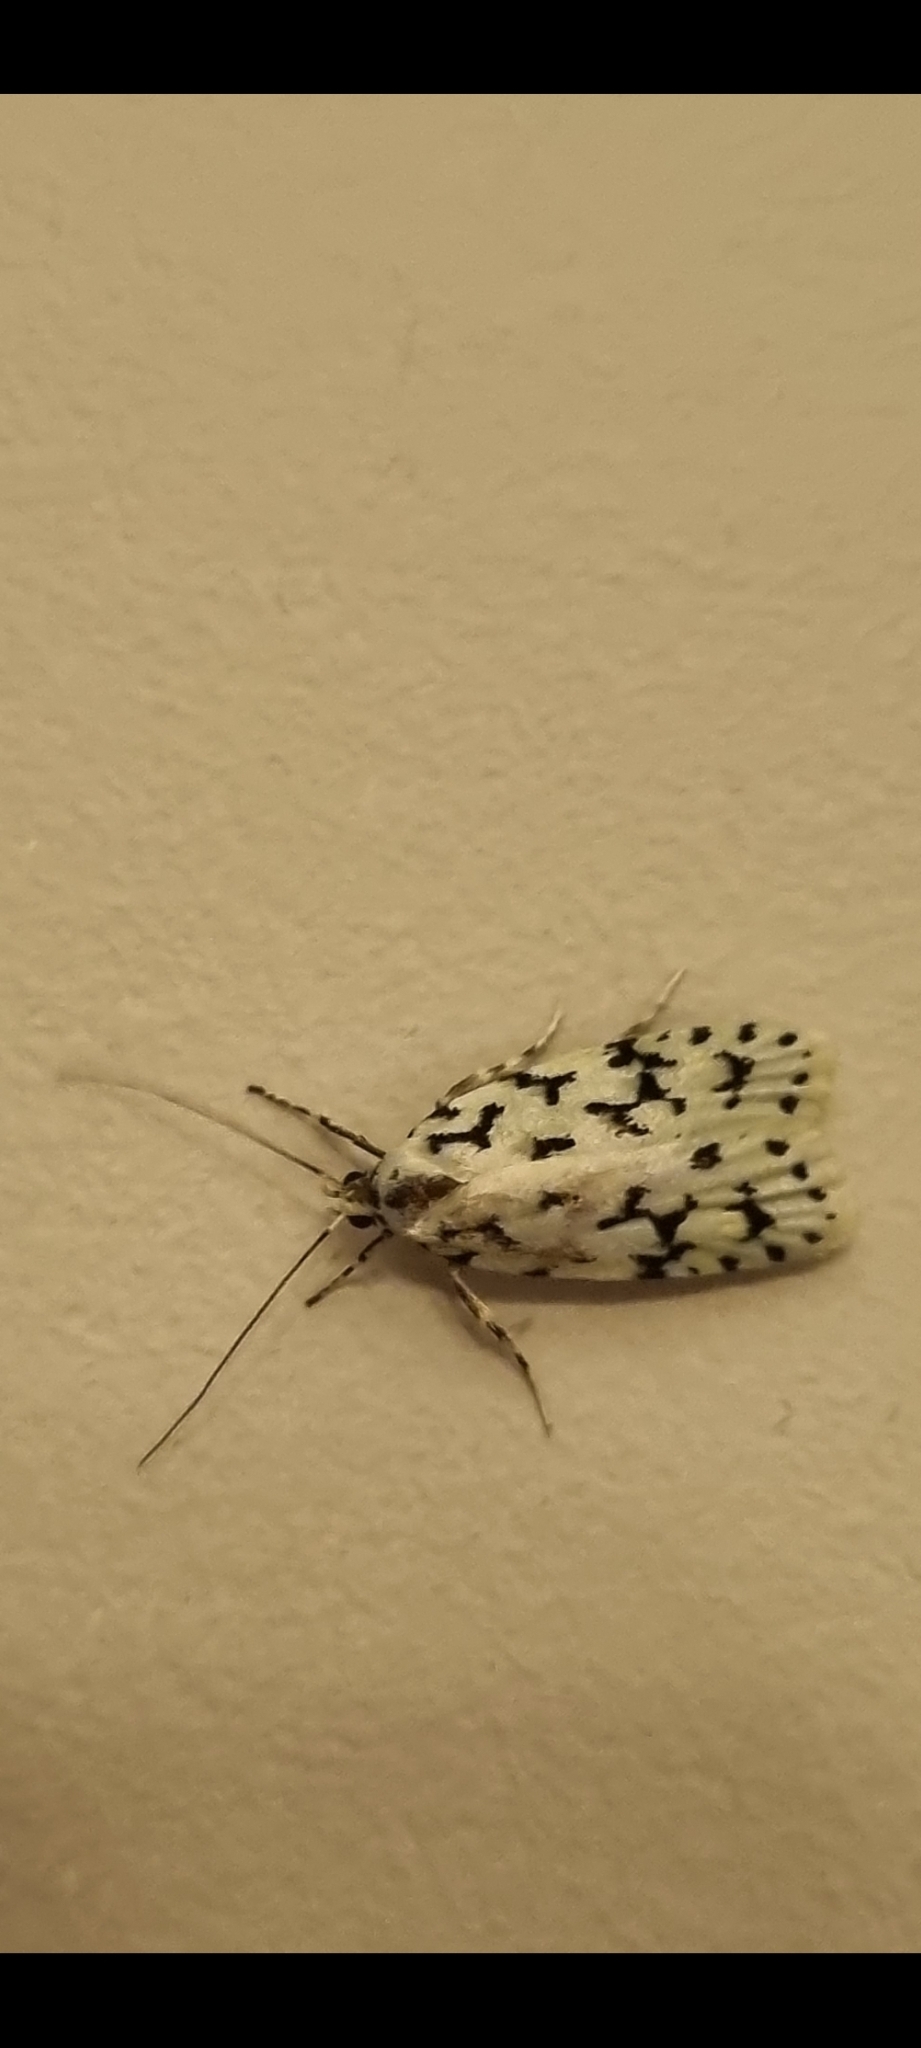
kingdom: Animalia
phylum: Arthropoda
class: Insecta
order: Lepidoptera
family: Oecophoridae
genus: Izatha
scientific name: Izatha huttoni
